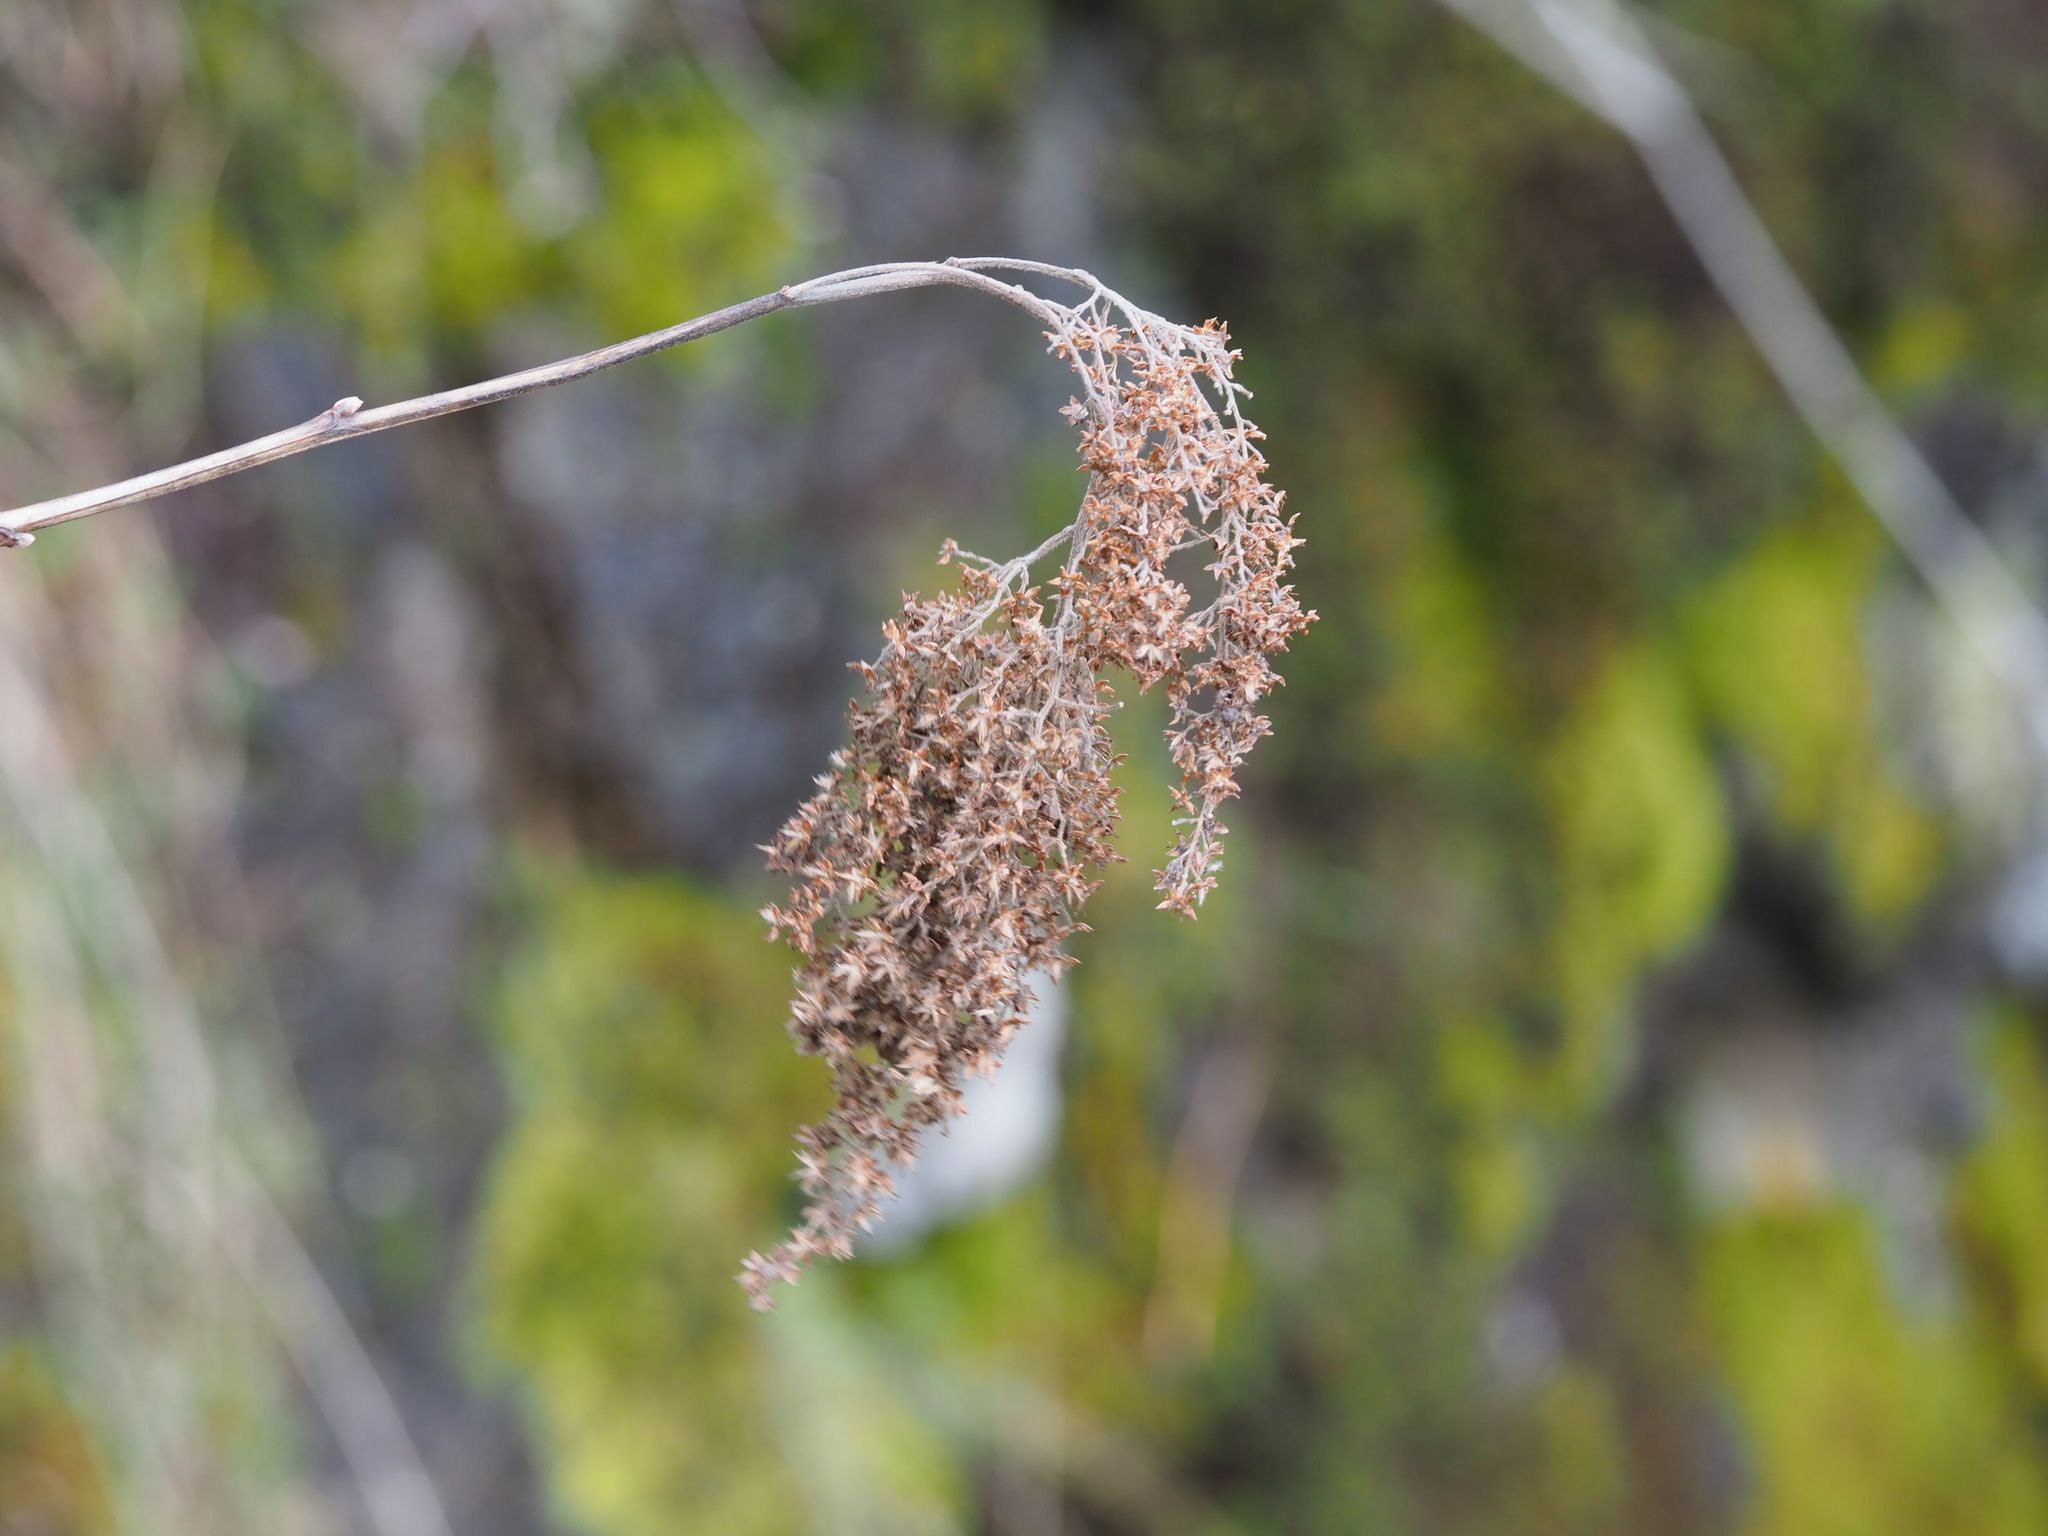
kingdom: Plantae
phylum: Tracheophyta
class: Magnoliopsida
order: Rosales
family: Rosaceae
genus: Holodiscus
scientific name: Holodiscus discolor
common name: Oceanspray
